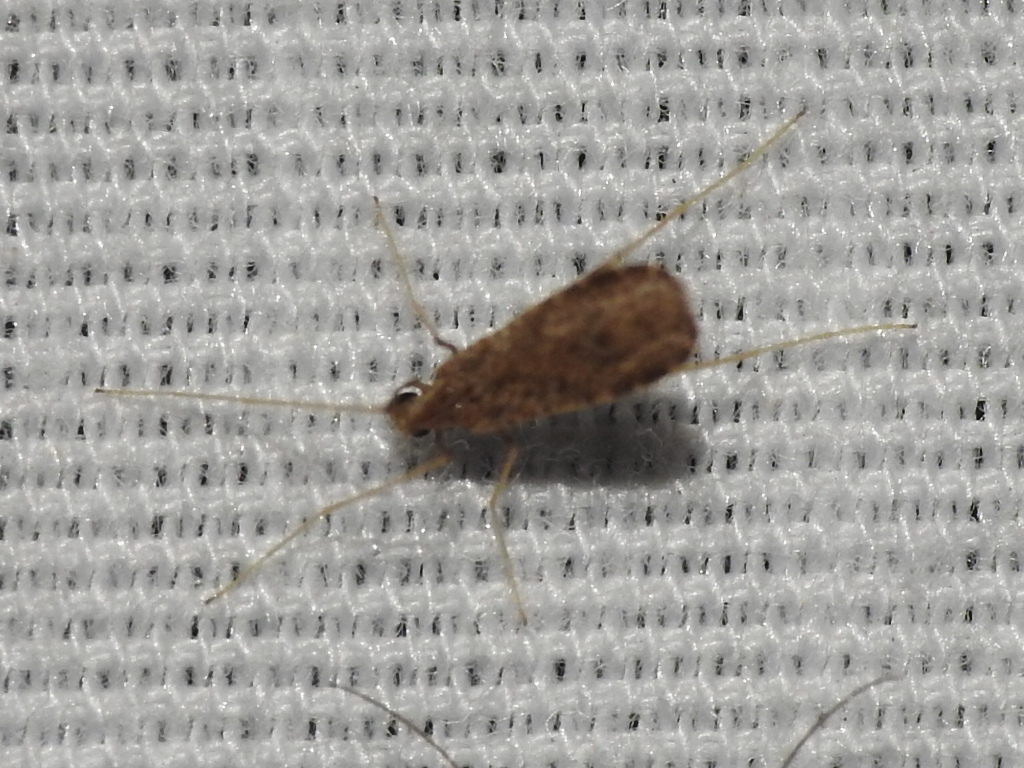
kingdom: Animalia
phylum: Arthropoda
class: Insecta
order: Diptera
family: Limoniidae
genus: Erioptera
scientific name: Erioptera tantilla
